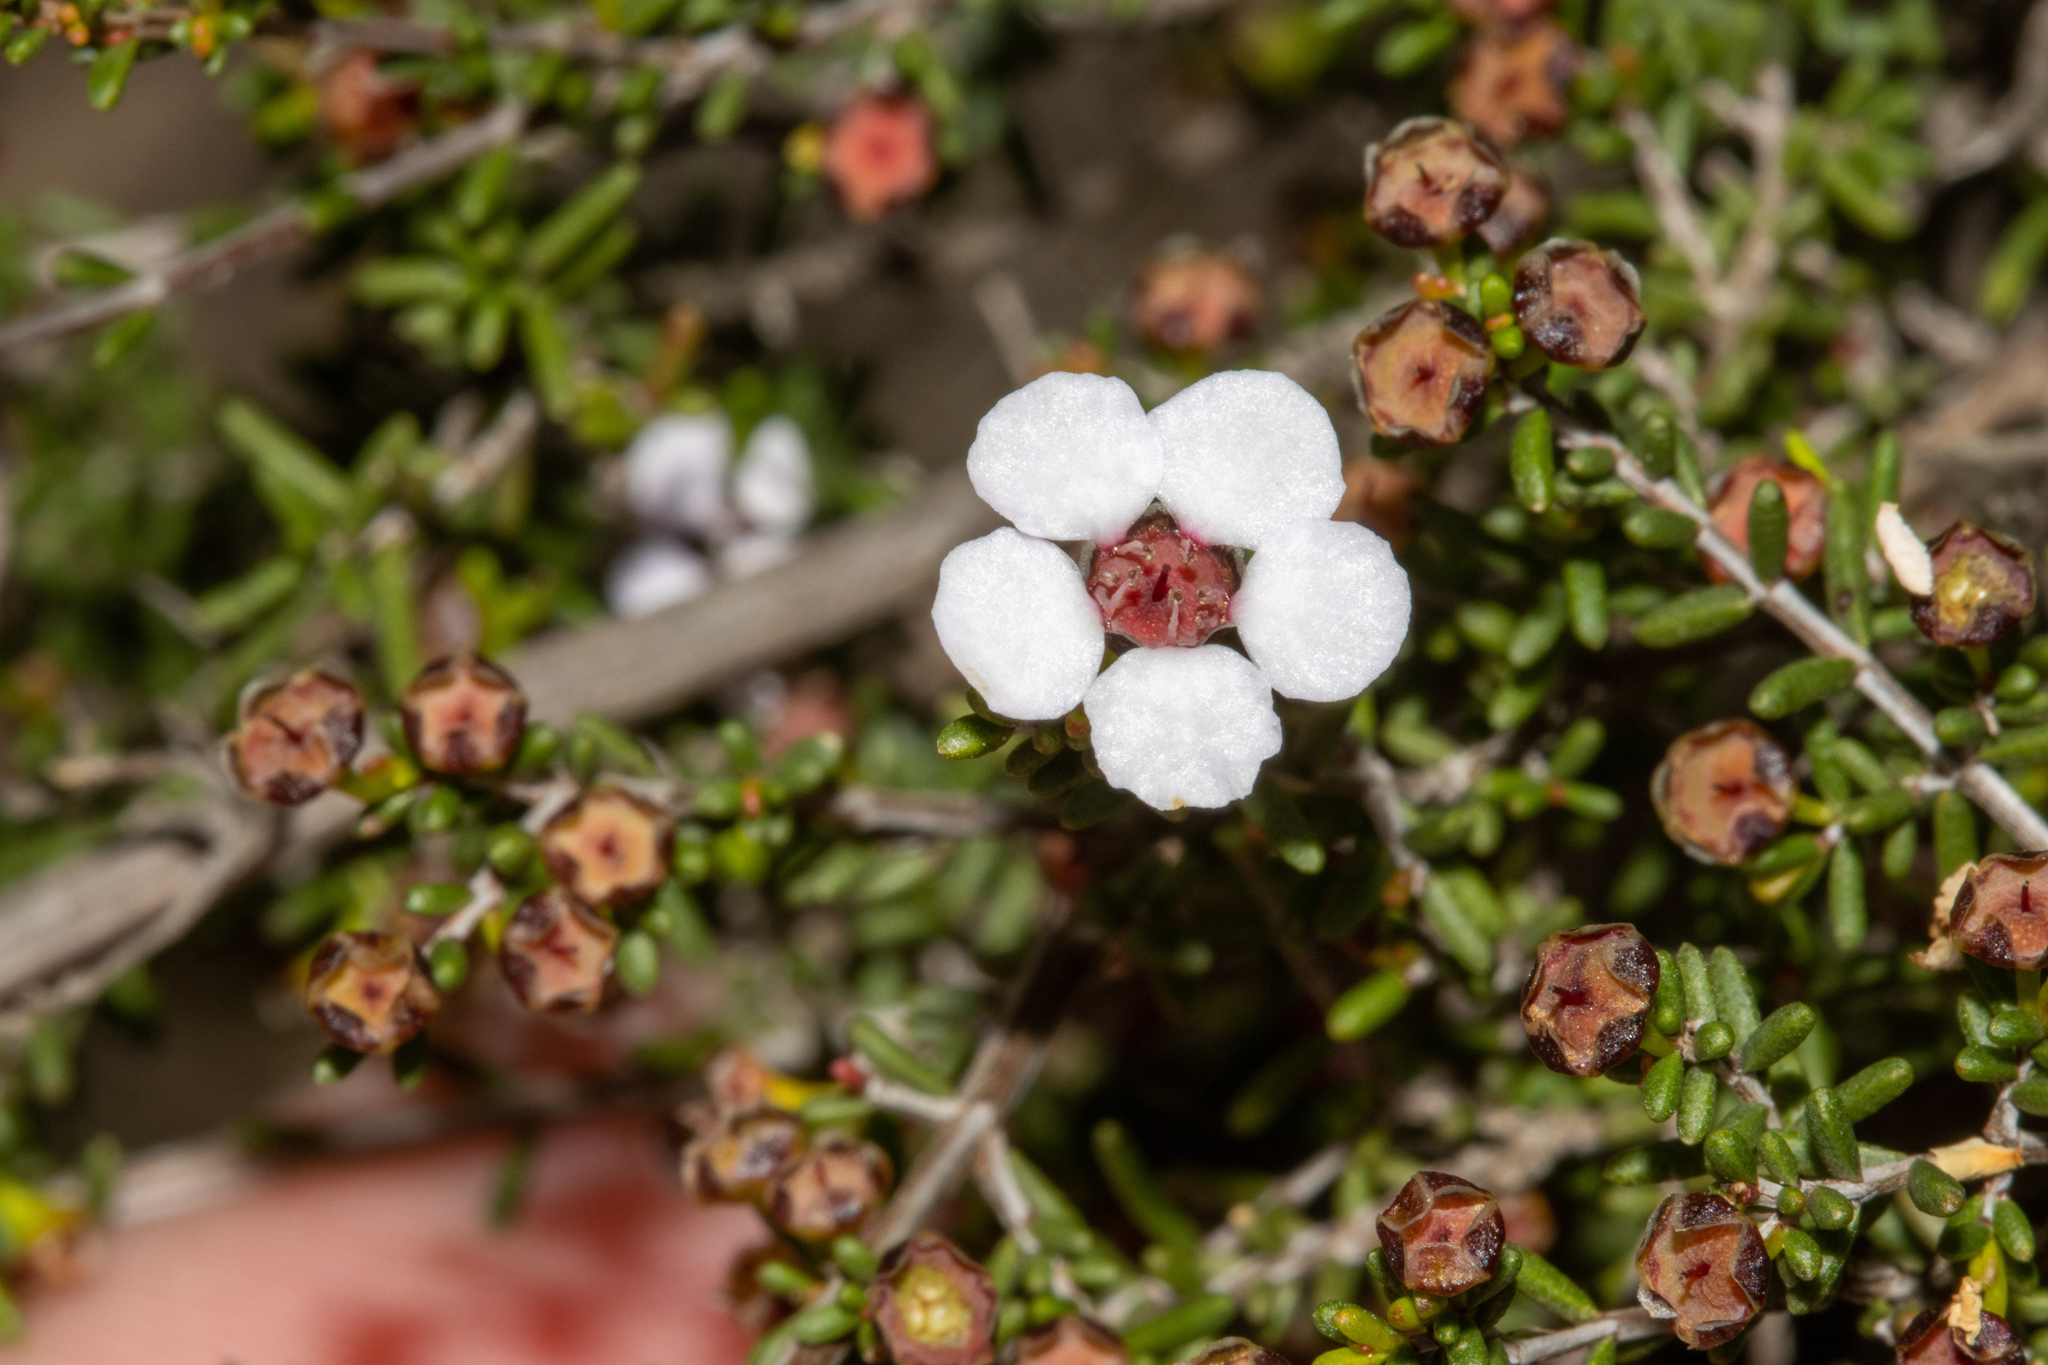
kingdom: Plantae
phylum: Tracheophyta
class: Magnoliopsida
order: Myrtales
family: Myrtaceae
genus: Rinzia
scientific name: Rinzia orientalis
